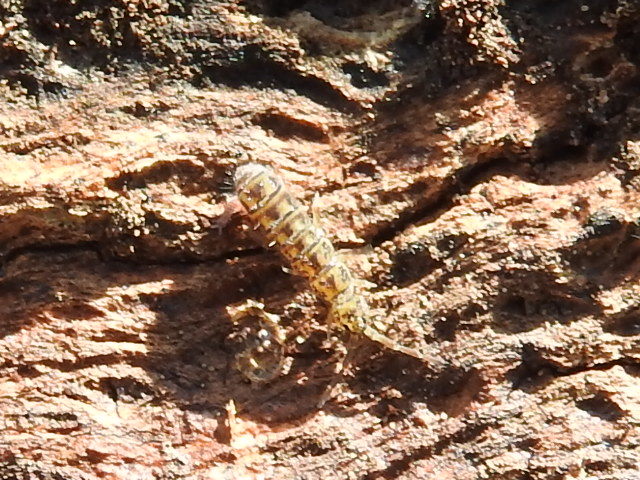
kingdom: Animalia
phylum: Arthropoda
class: Collembola
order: Entomobryomorpha
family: Isotomidae
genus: Isotoma
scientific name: Isotoma delta
